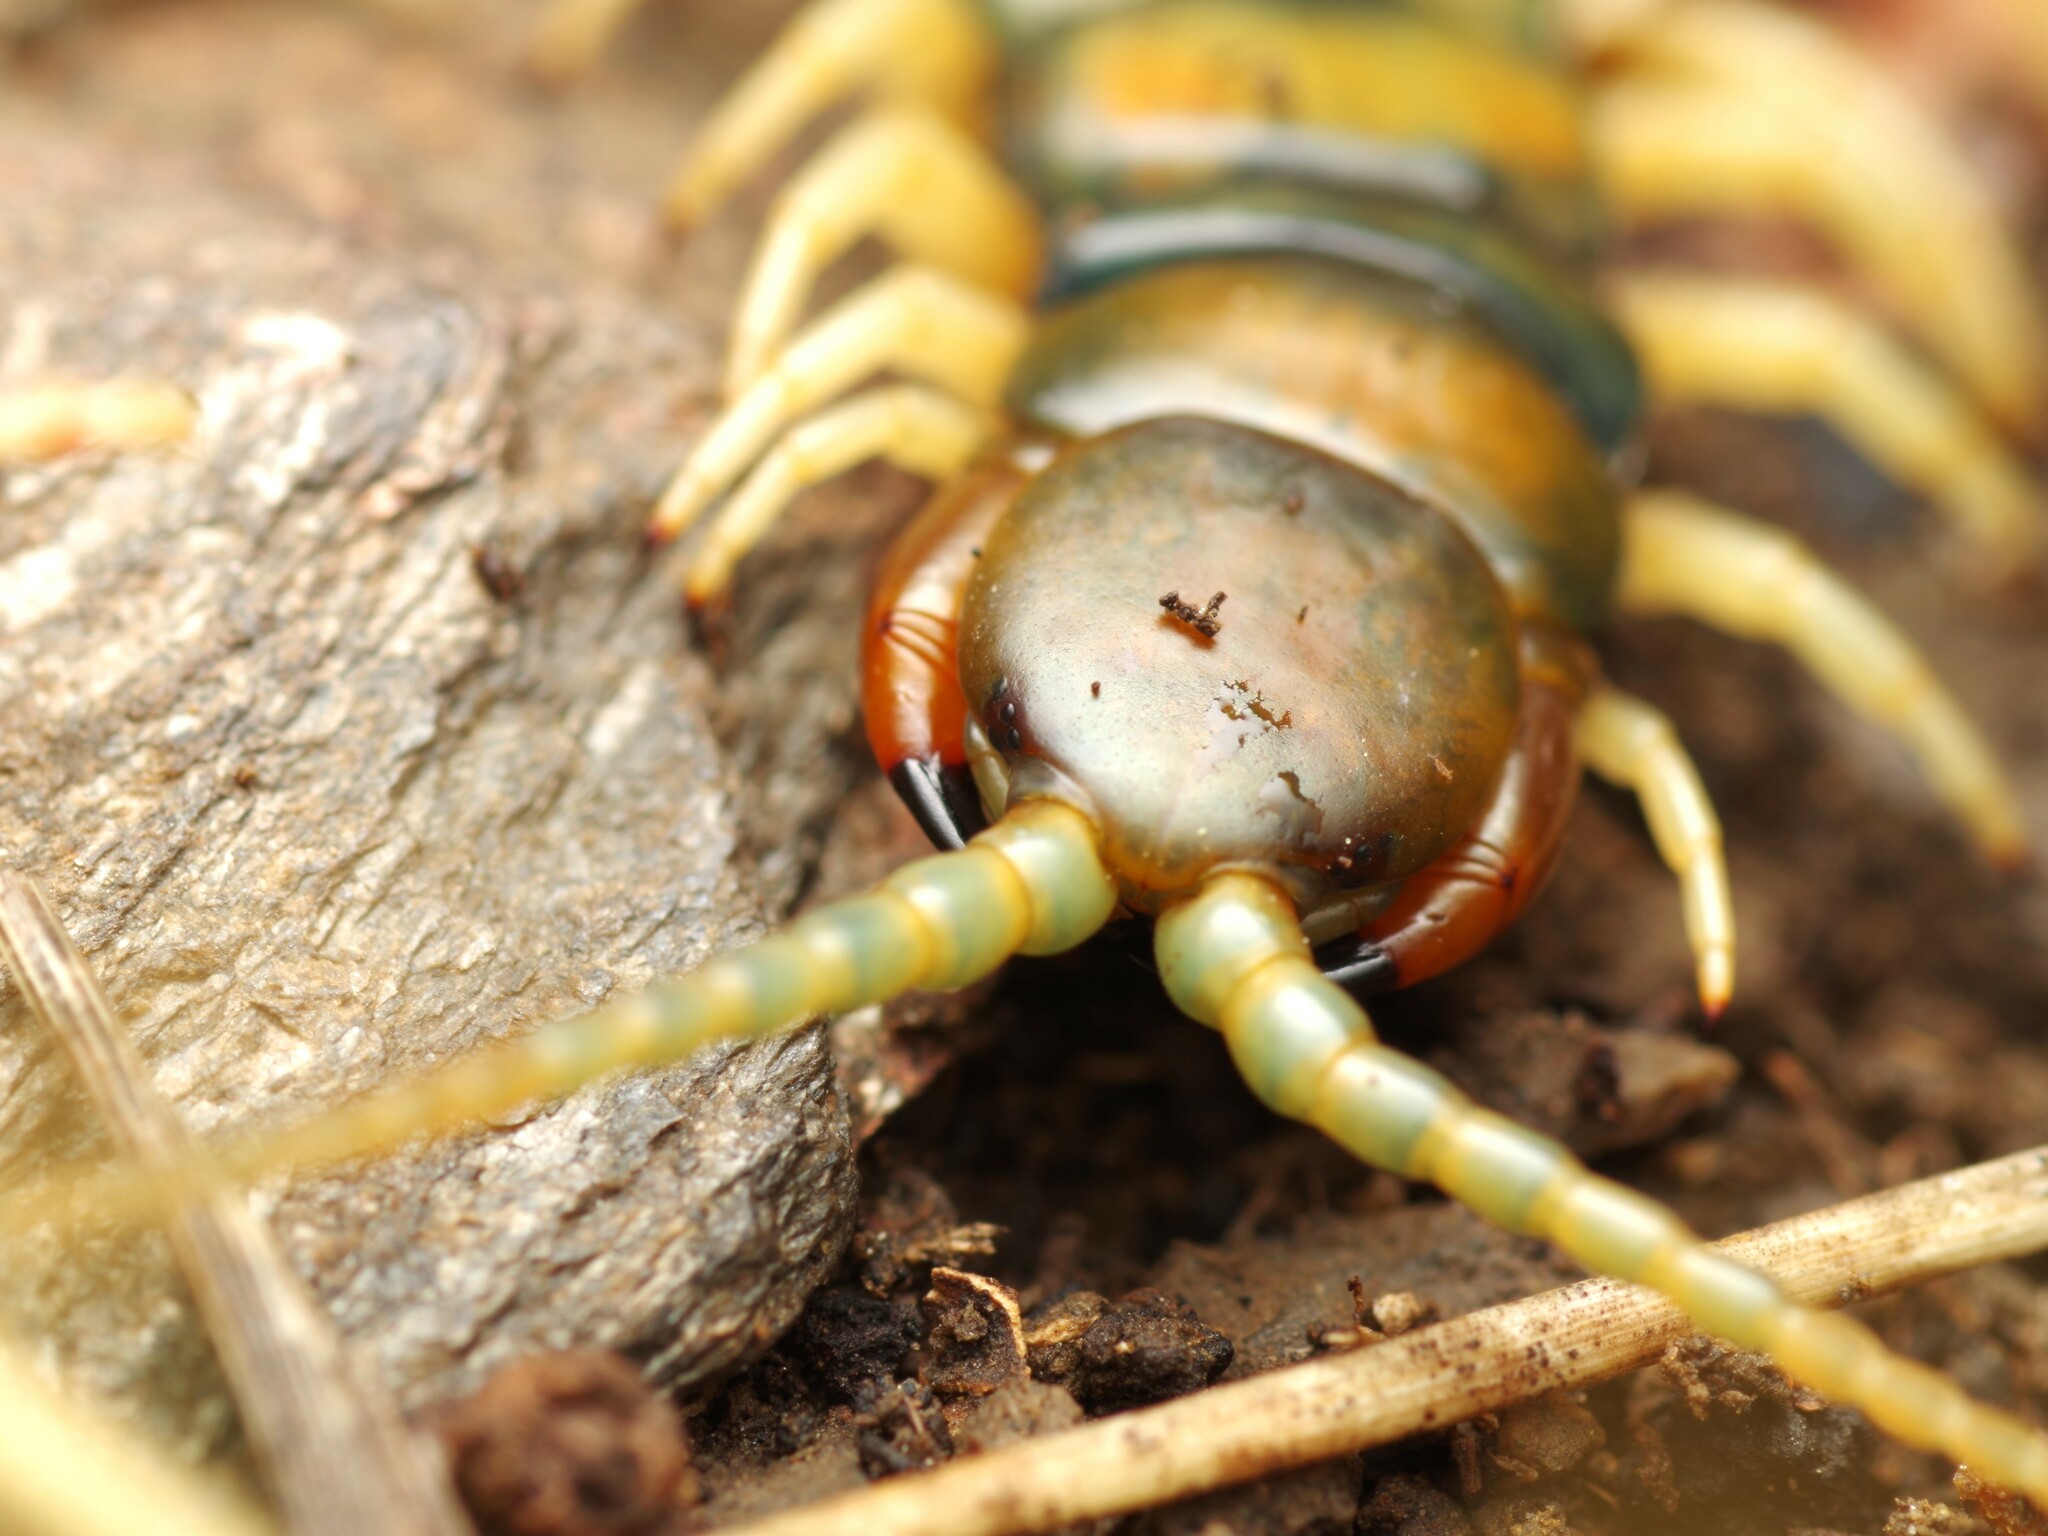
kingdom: Animalia
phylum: Arthropoda
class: Chilopoda
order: Scolopendromorpha
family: Scolopendridae
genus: Scolopendra
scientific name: Scolopendra cingulata
